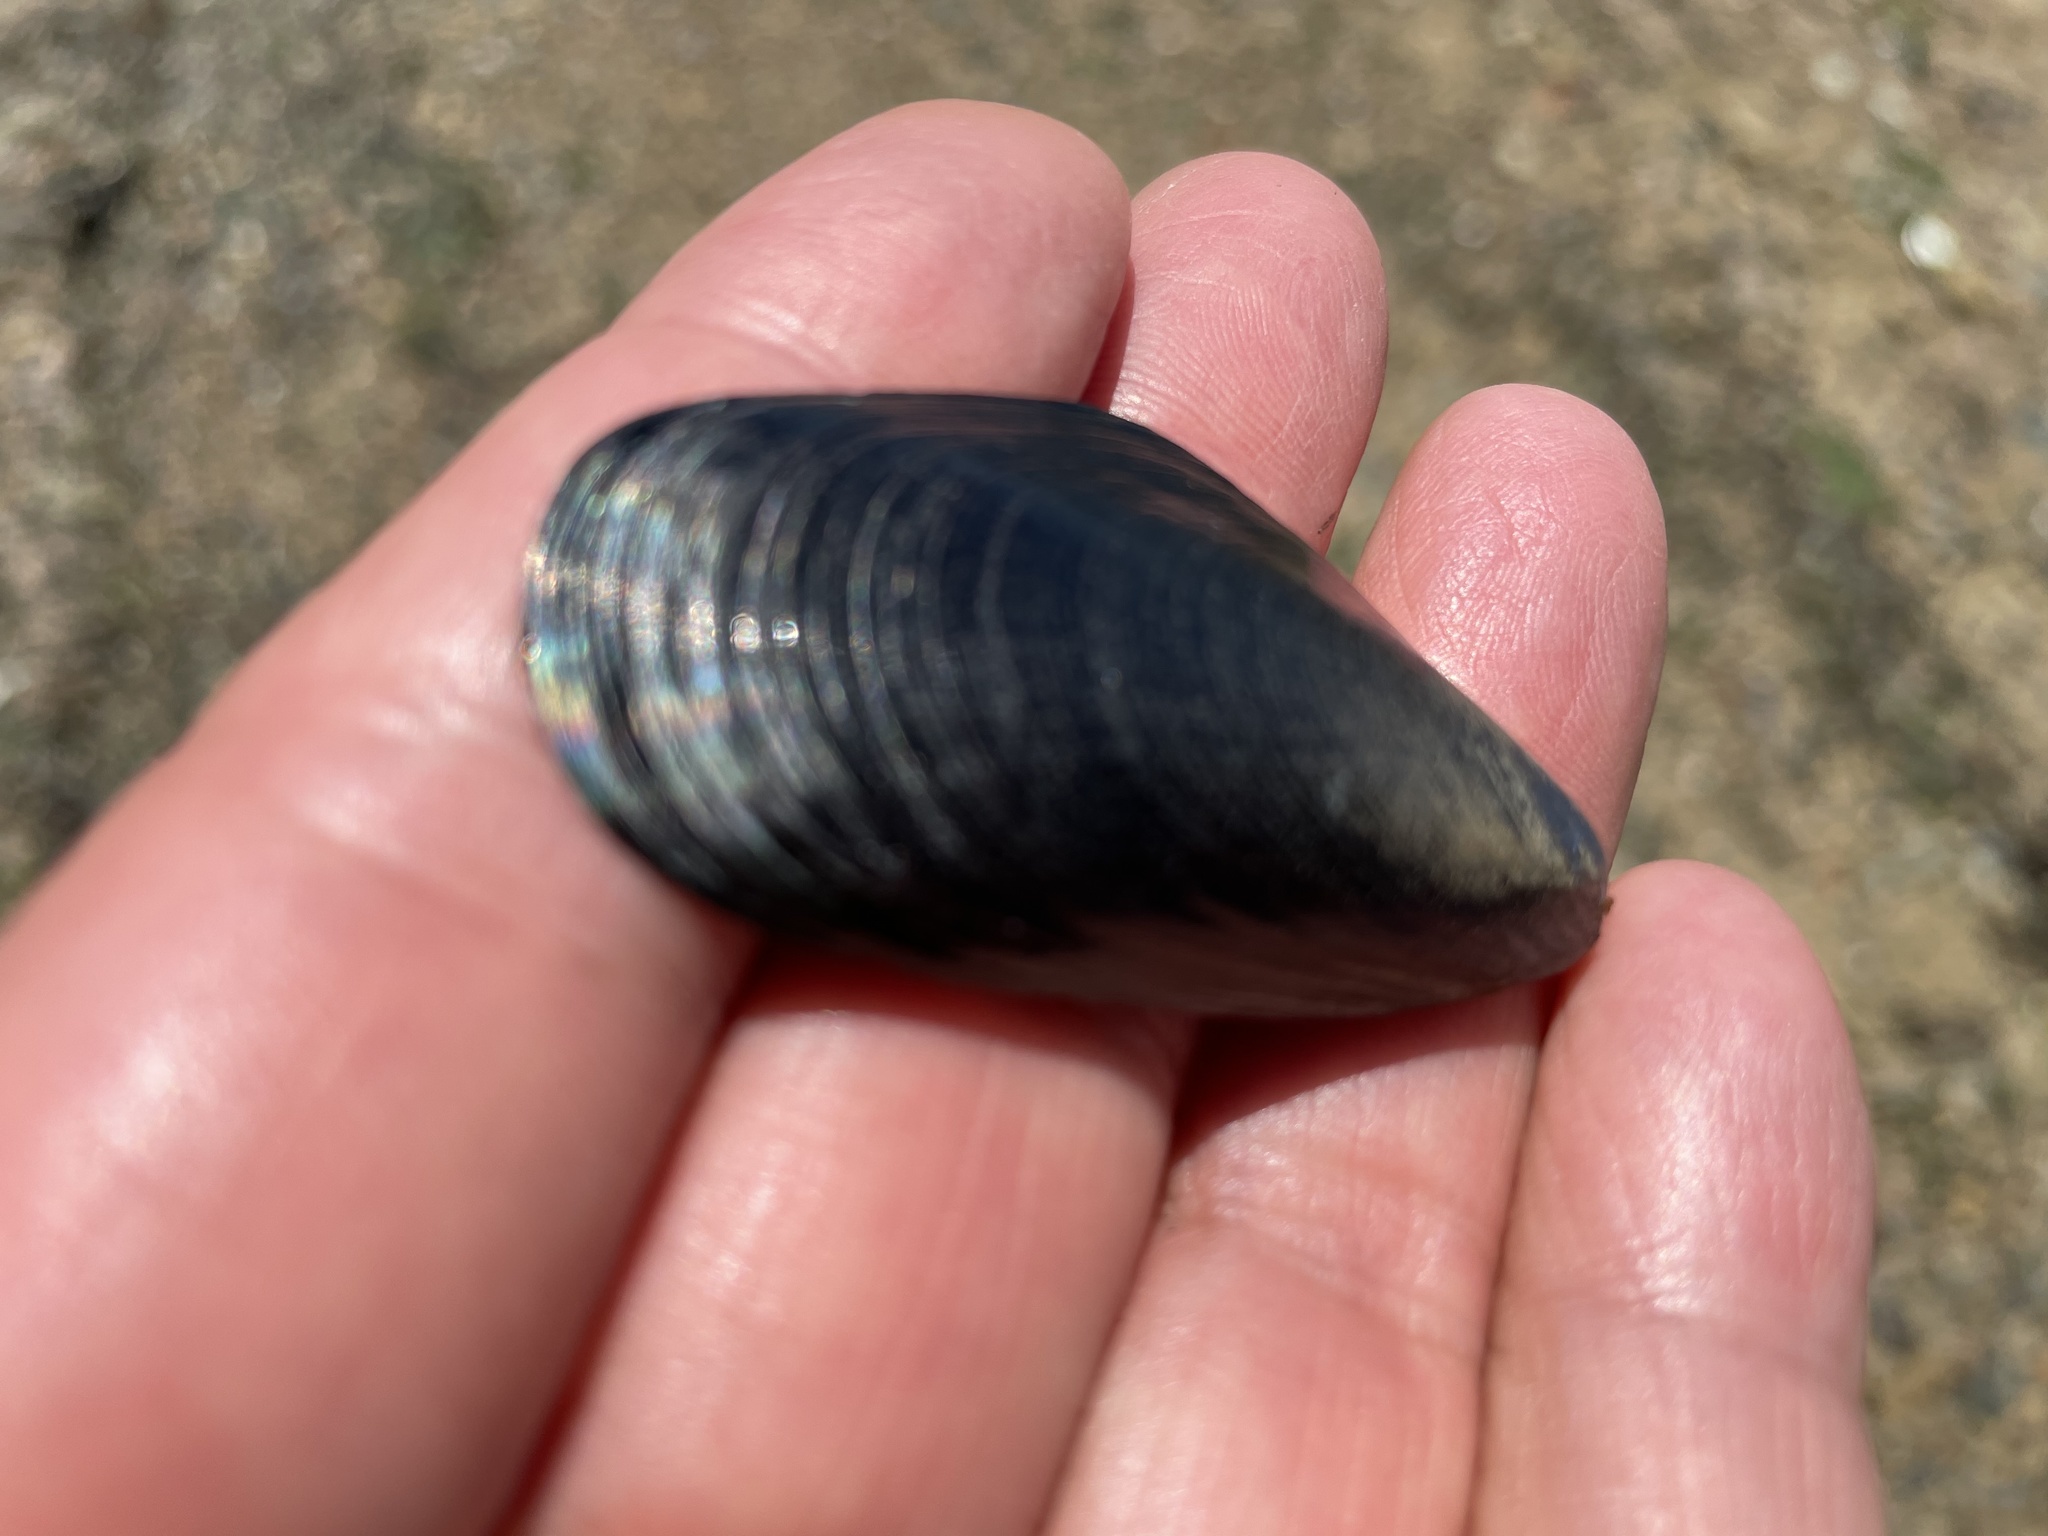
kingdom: Animalia
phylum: Mollusca
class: Bivalvia
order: Mytilida
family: Mytilidae
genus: Mytilus
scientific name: Mytilus
